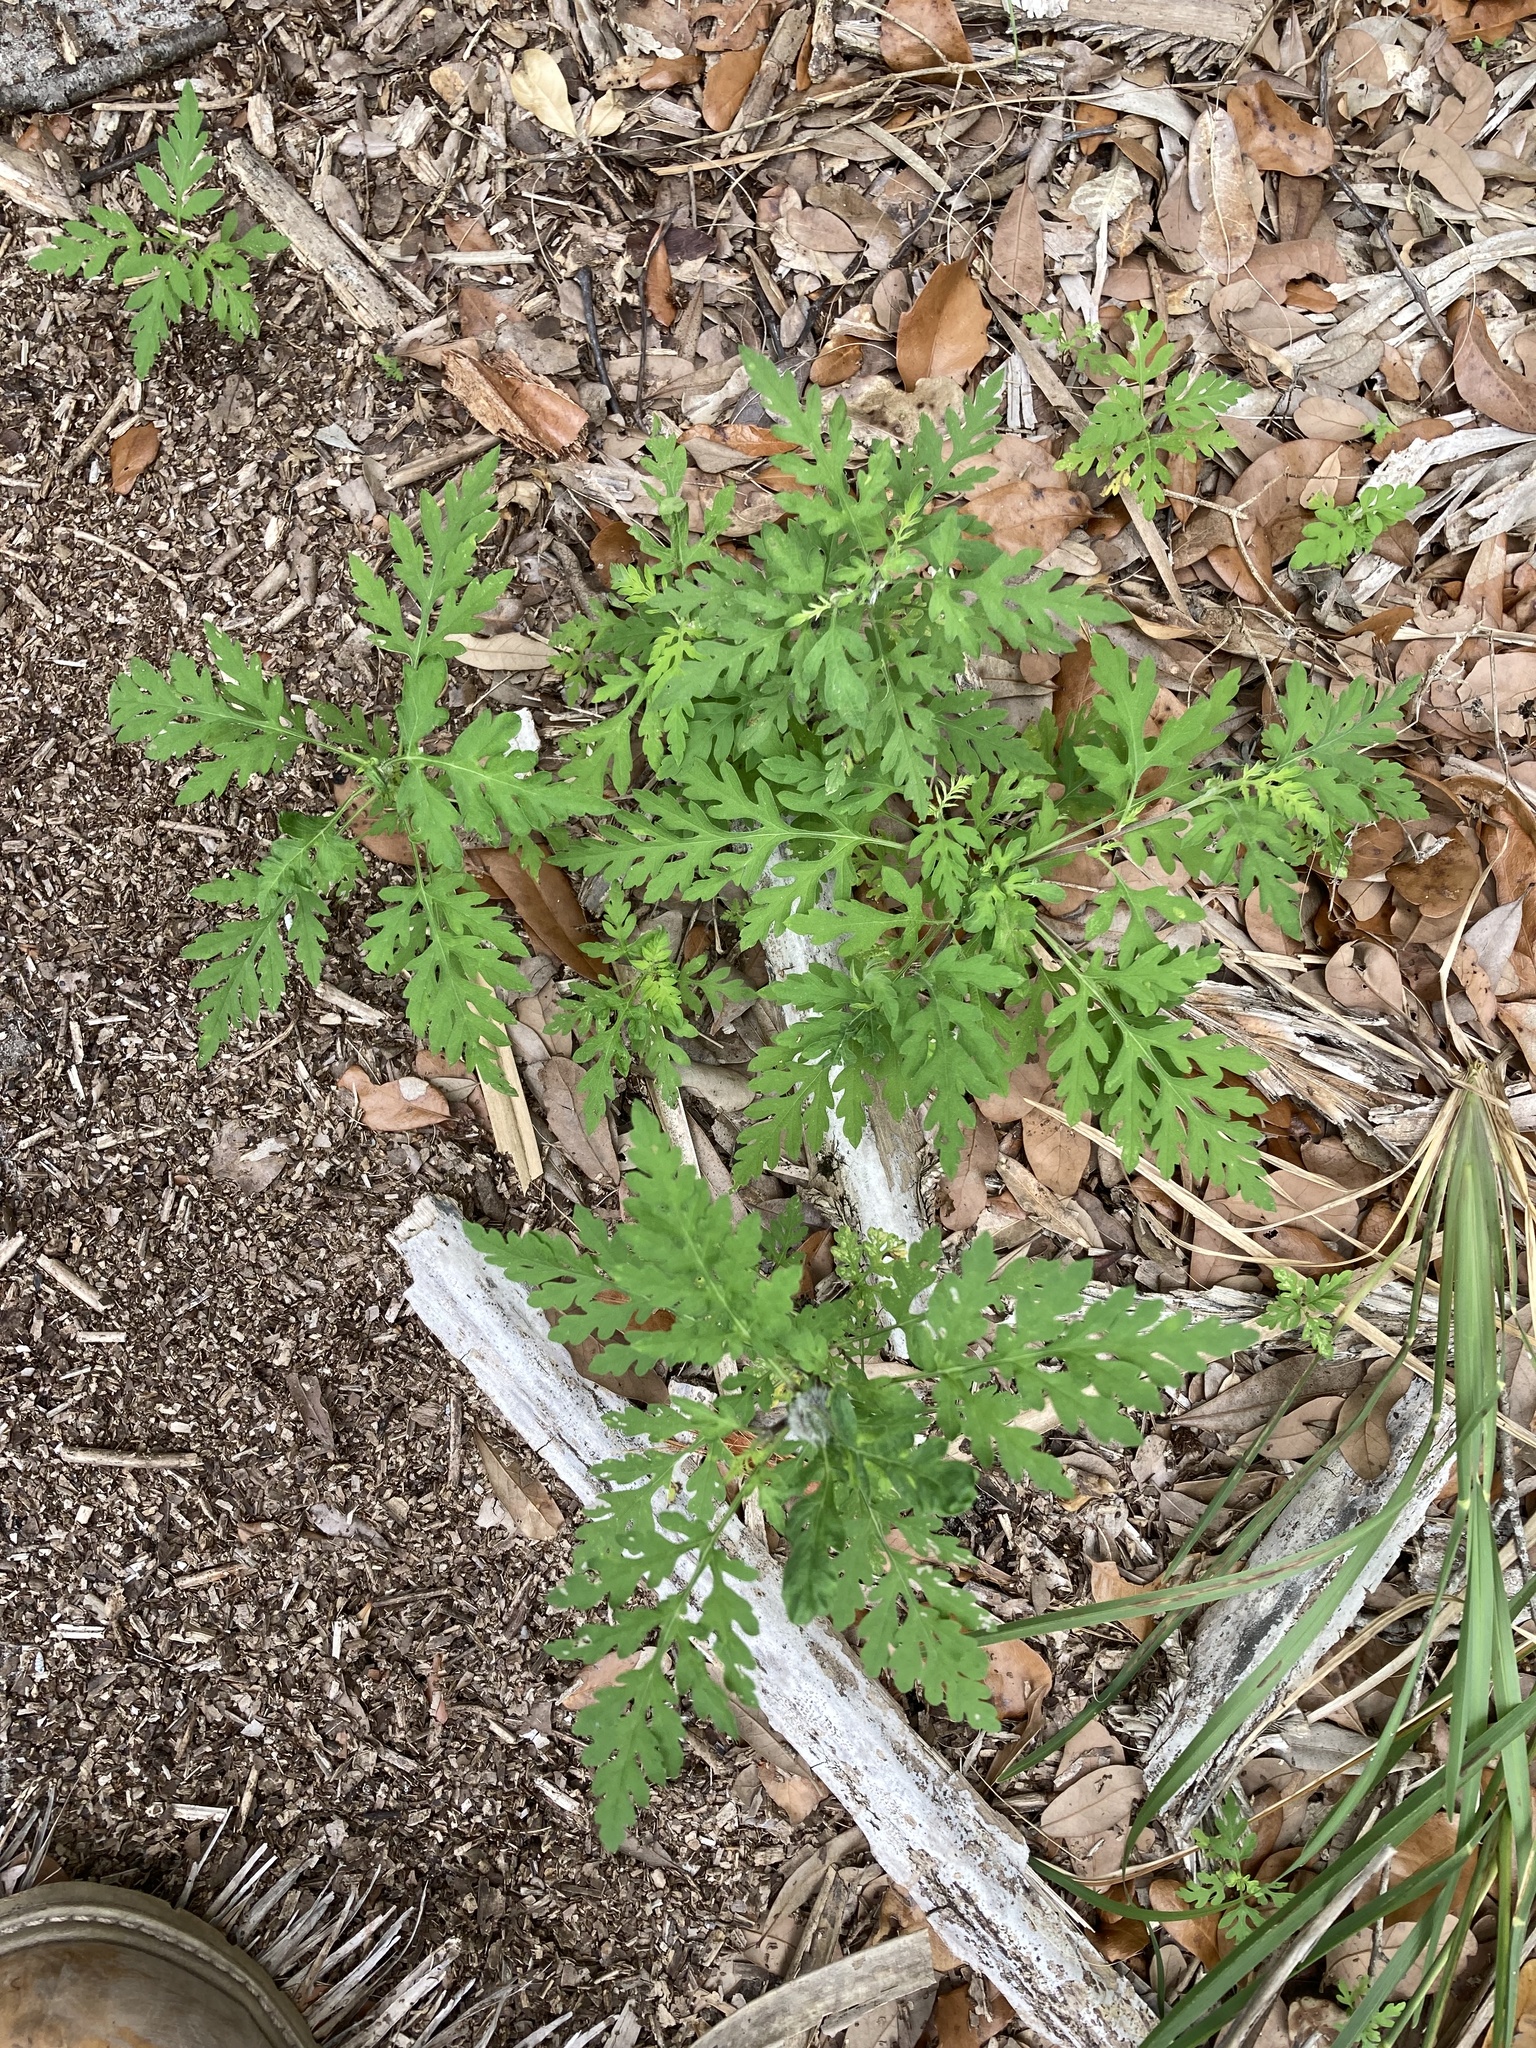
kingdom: Plantae
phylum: Tracheophyta
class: Magnoliopsida
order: Asterales
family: Asteraceae
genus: Ambrosia
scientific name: Ambrosia artemisiifolia
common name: Annual ragweed
